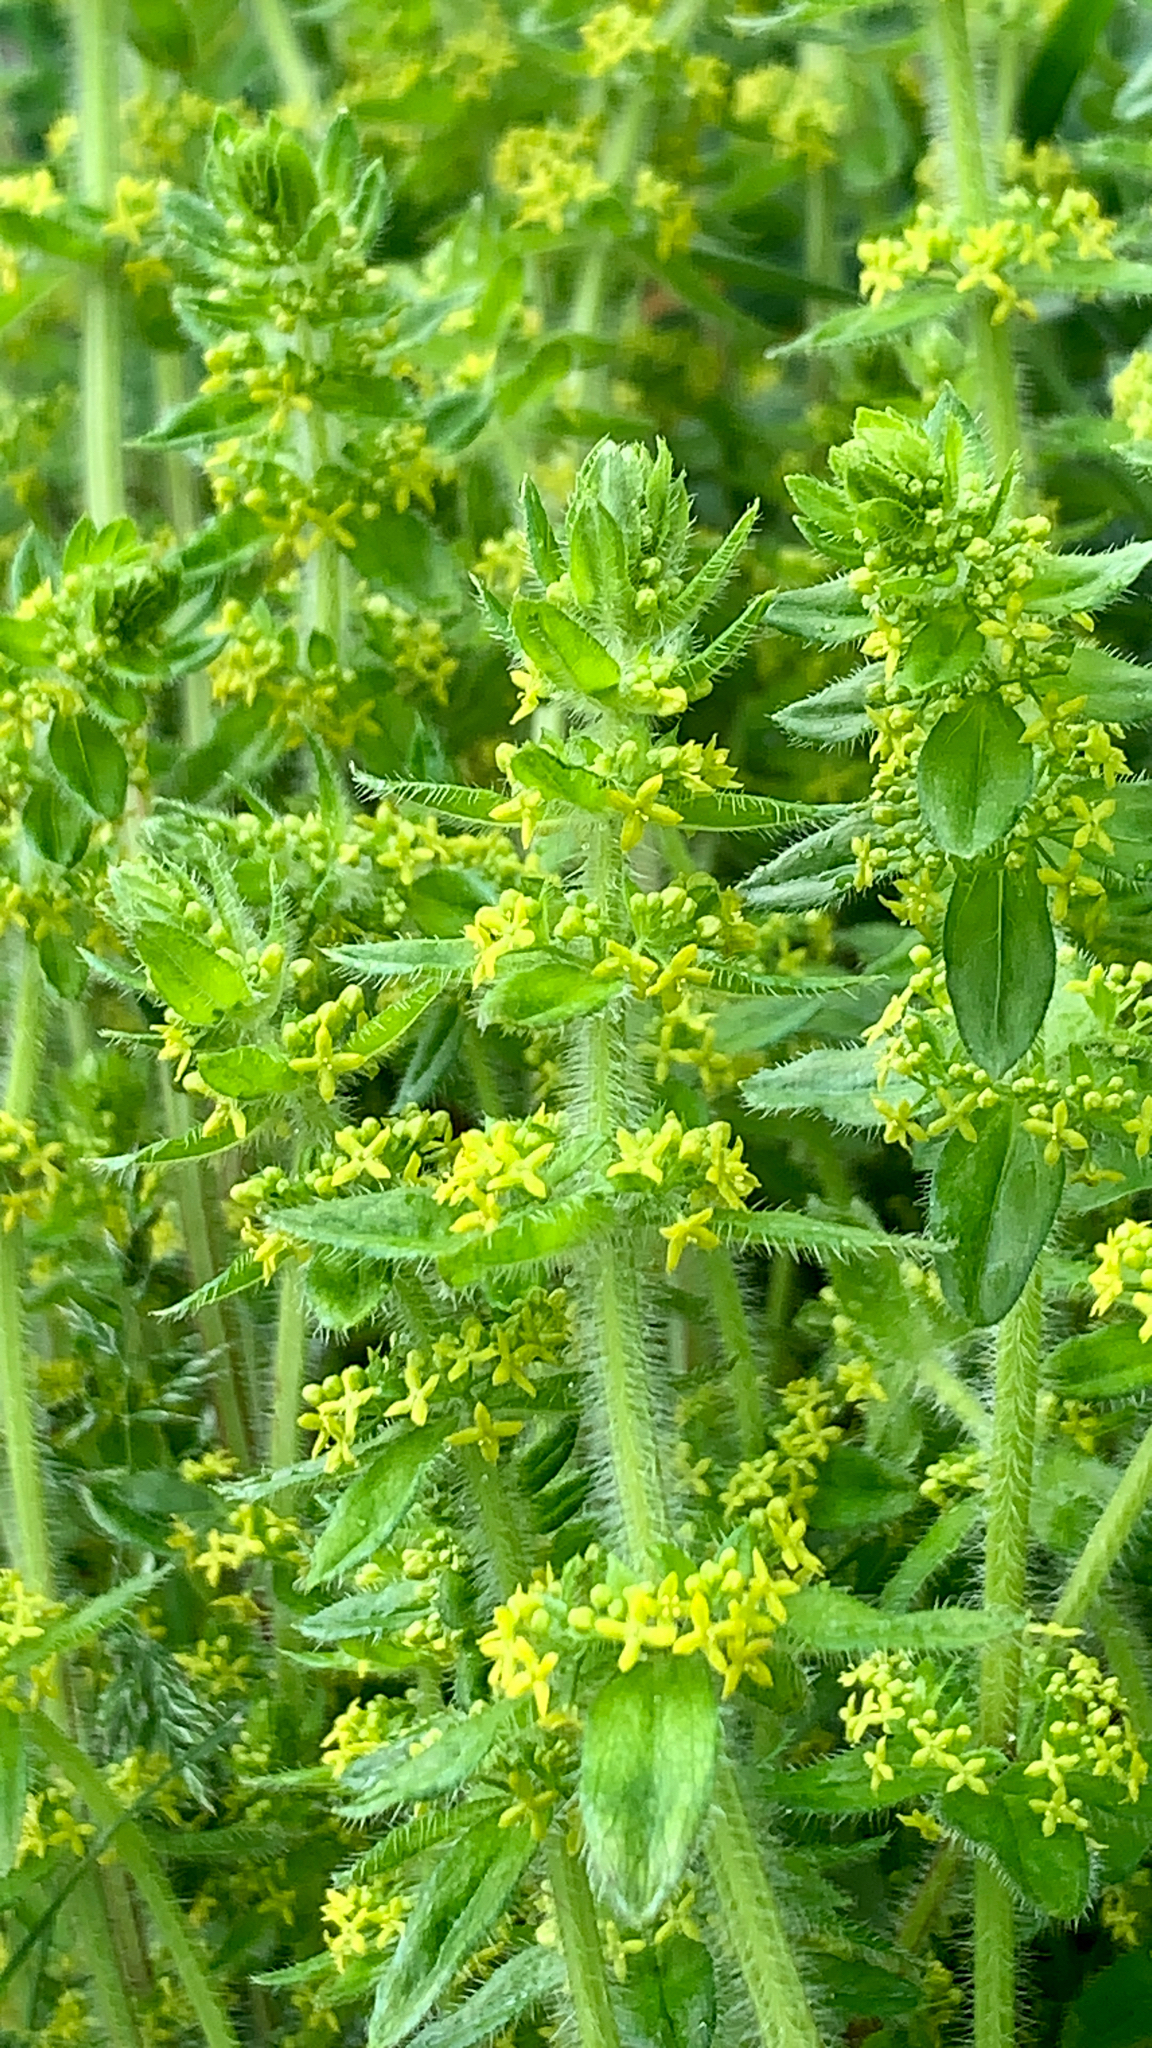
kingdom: Plantae
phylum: Tracheophyta
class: Magnoliopsida
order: Gentianales
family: Rubiaceae
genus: Cruciata
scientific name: Cruciata laevipes
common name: Crosswort
